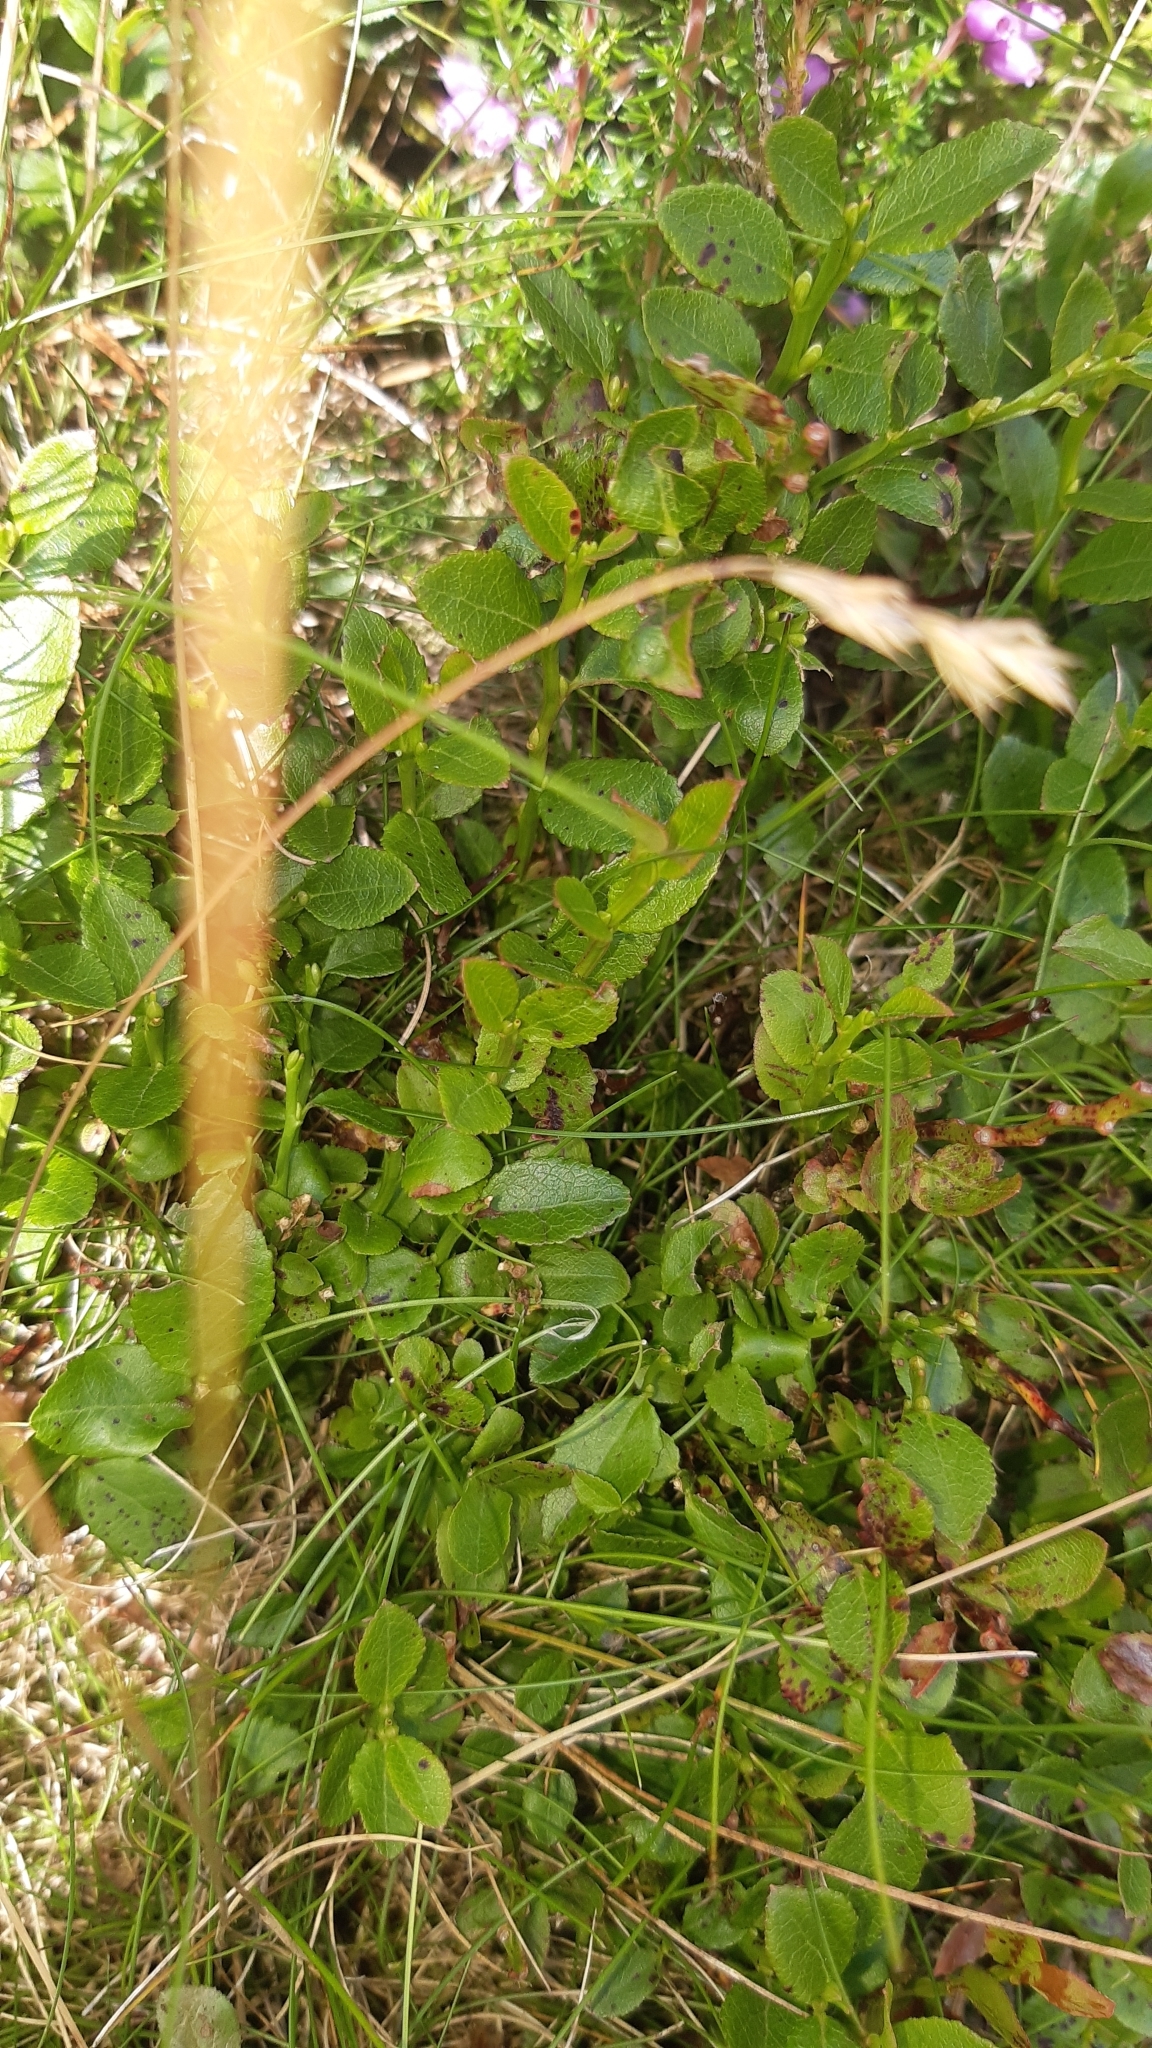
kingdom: Plantae
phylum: Tracheophyta
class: Magnoliopsida
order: Ericales
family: Ericaceae
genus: Vaccinium
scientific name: Vaccinium myrtillus
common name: Bilberry
